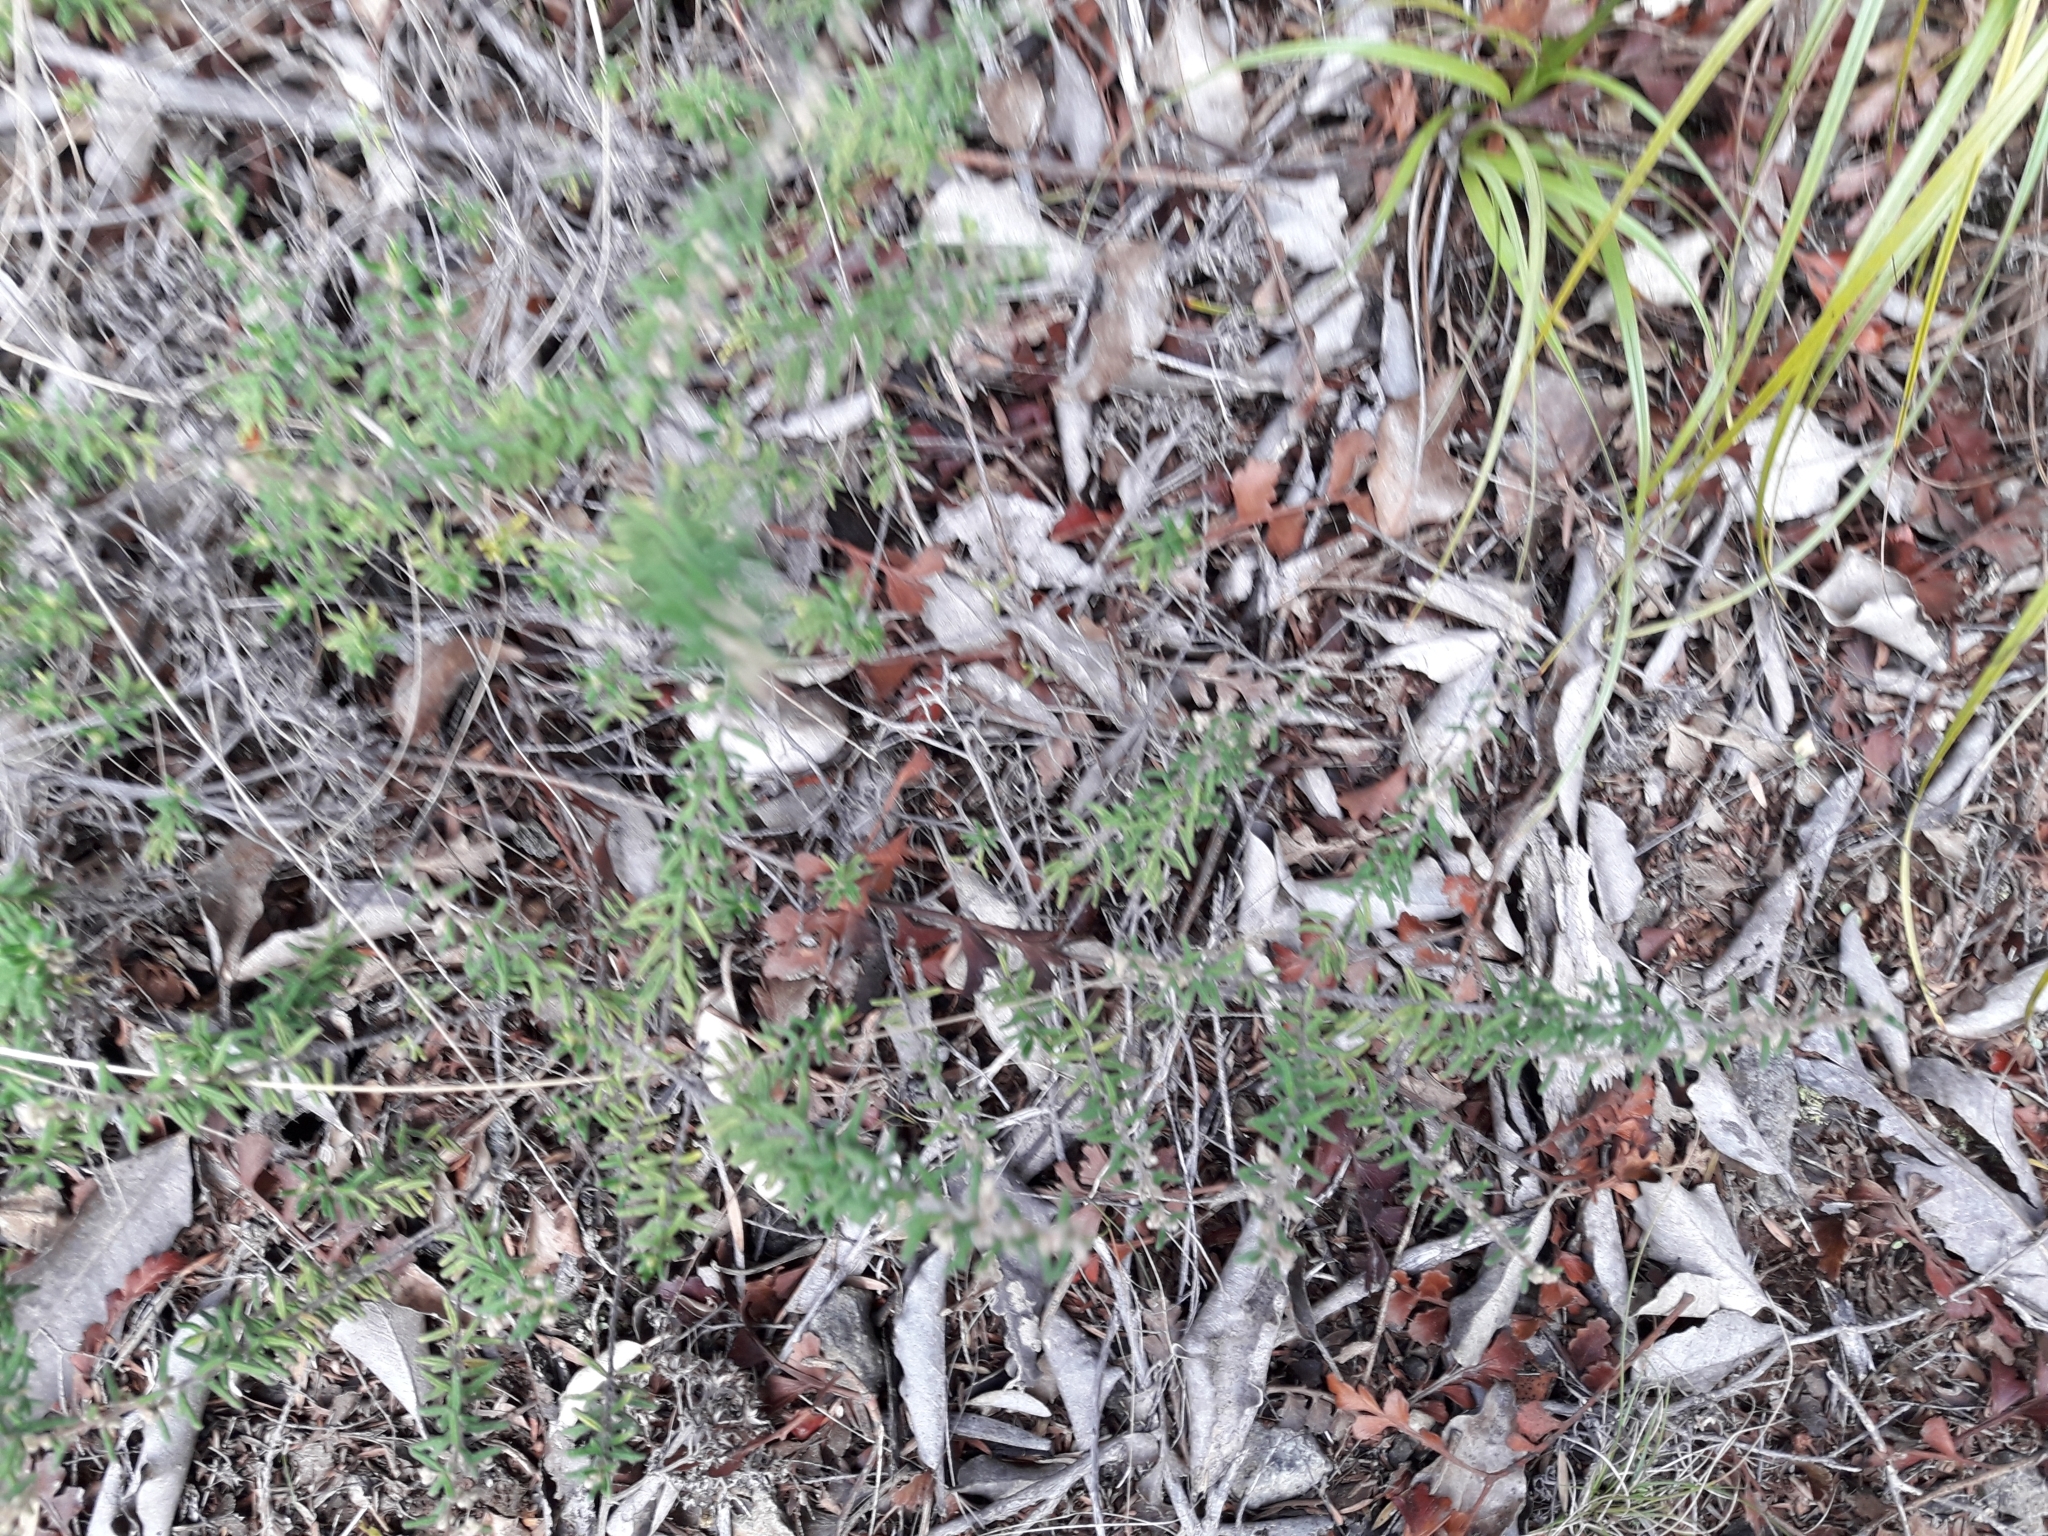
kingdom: Plantae
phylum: Tracheophyta
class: Magnoliopsida
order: Rosales
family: Rhamnaceae
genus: Pomaderris
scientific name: Pomaderris amoena
